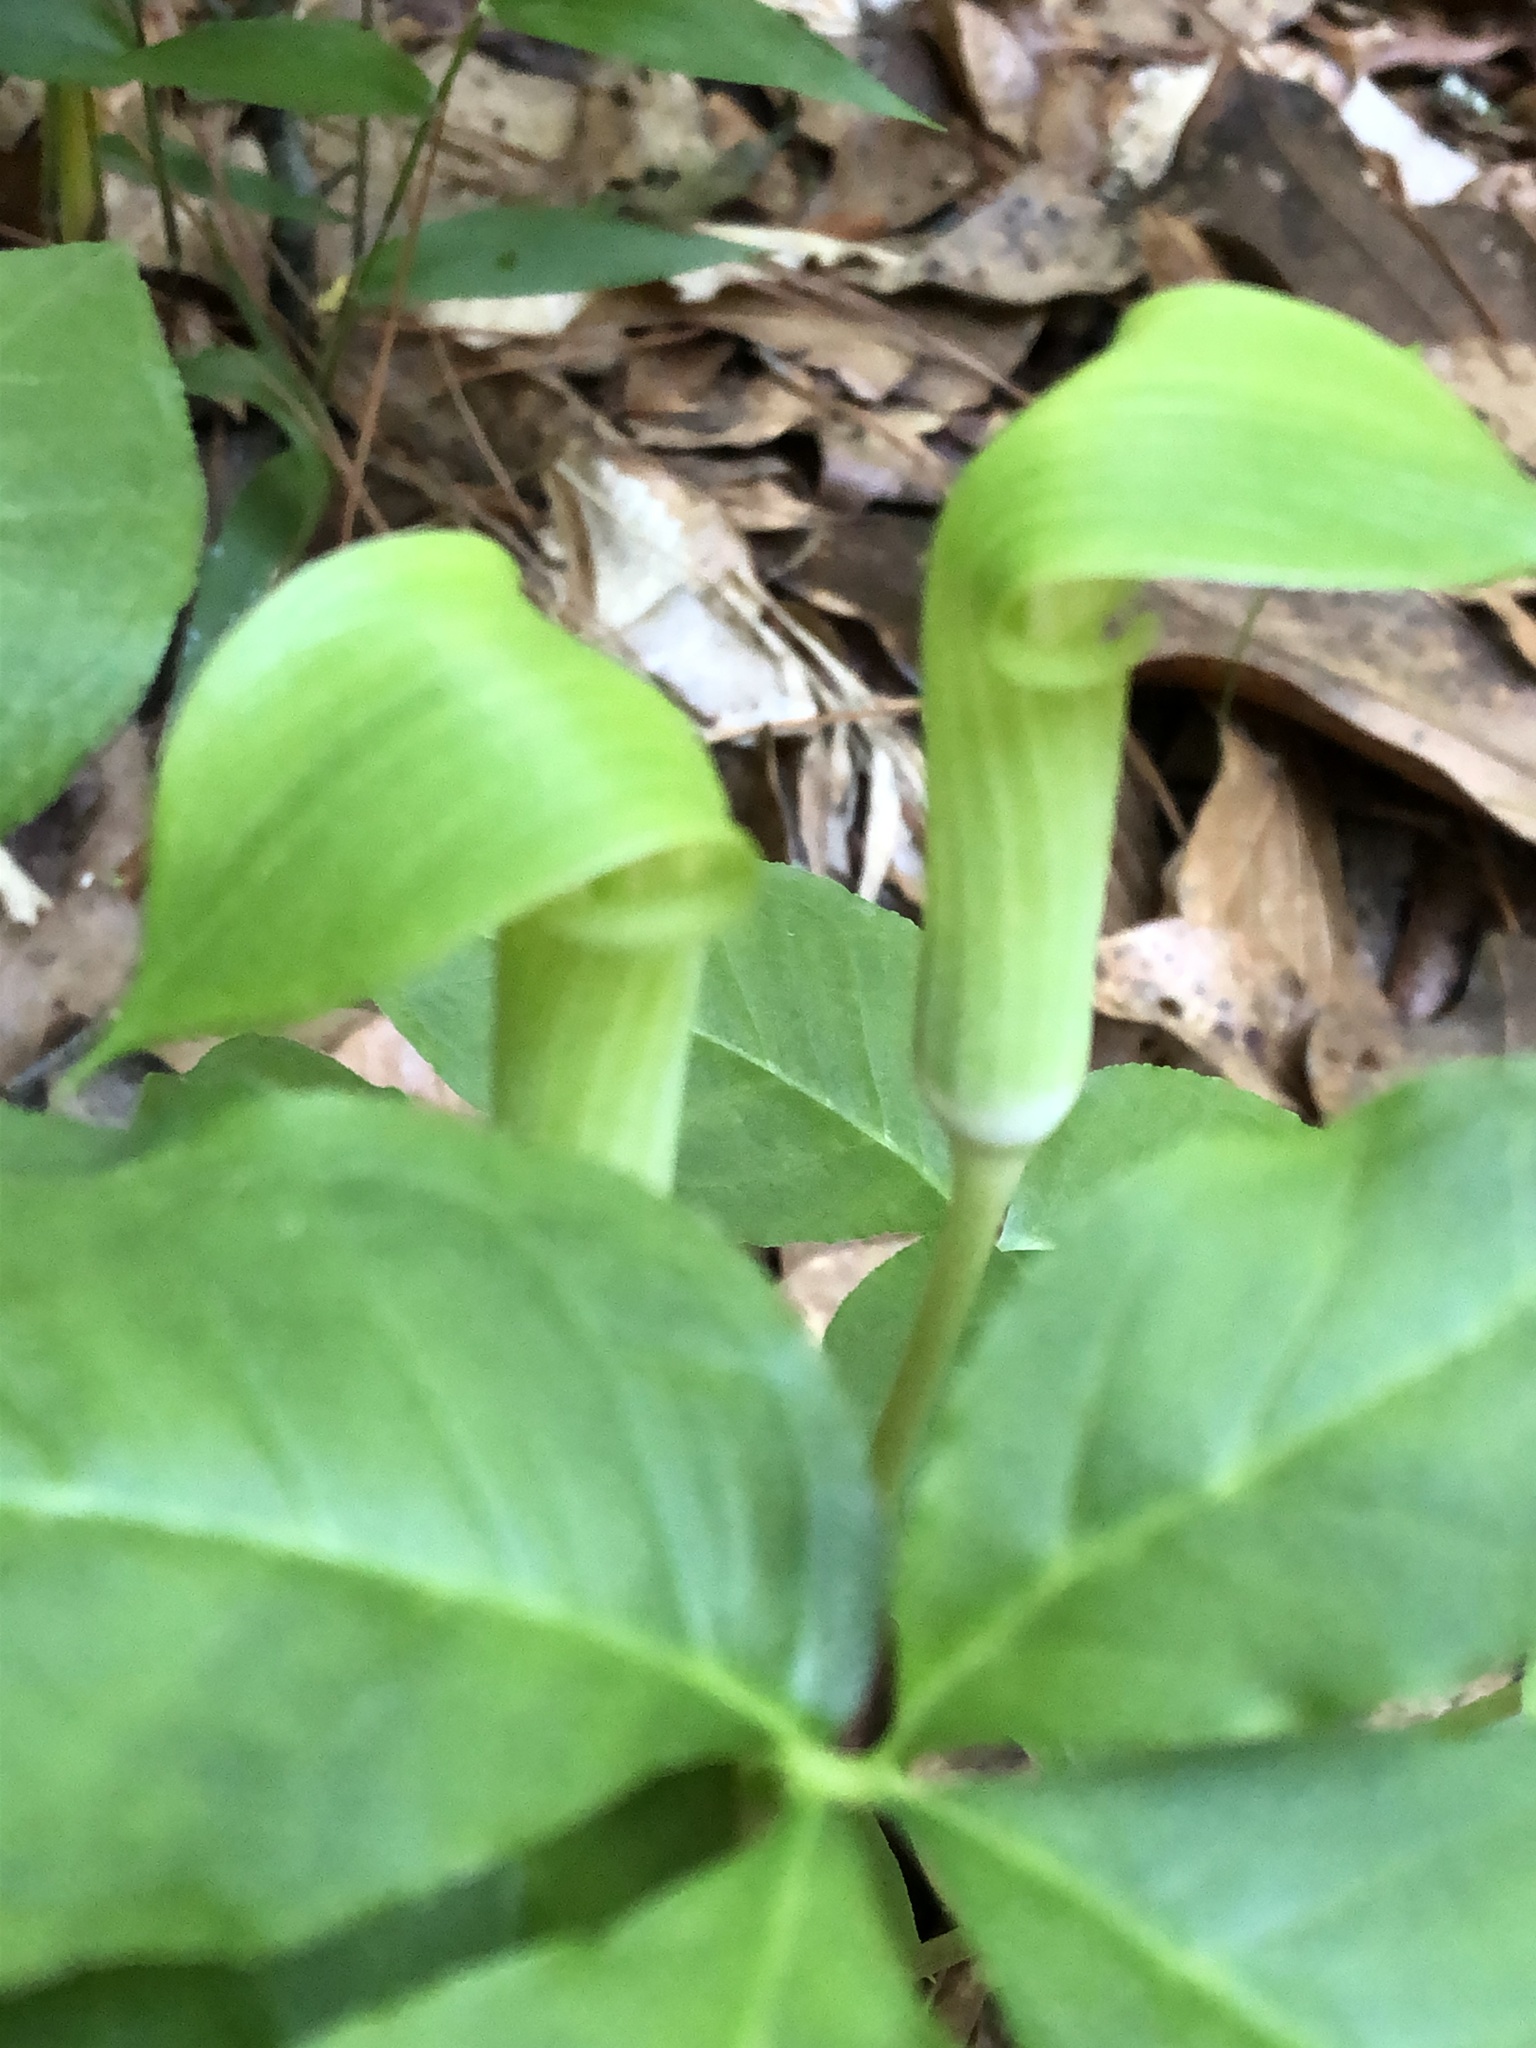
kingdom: Plantae
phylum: Tracheophyta
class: Liliopsida
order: Alismatales
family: Araceae
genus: Arisaema
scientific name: Arisaema quinatum
